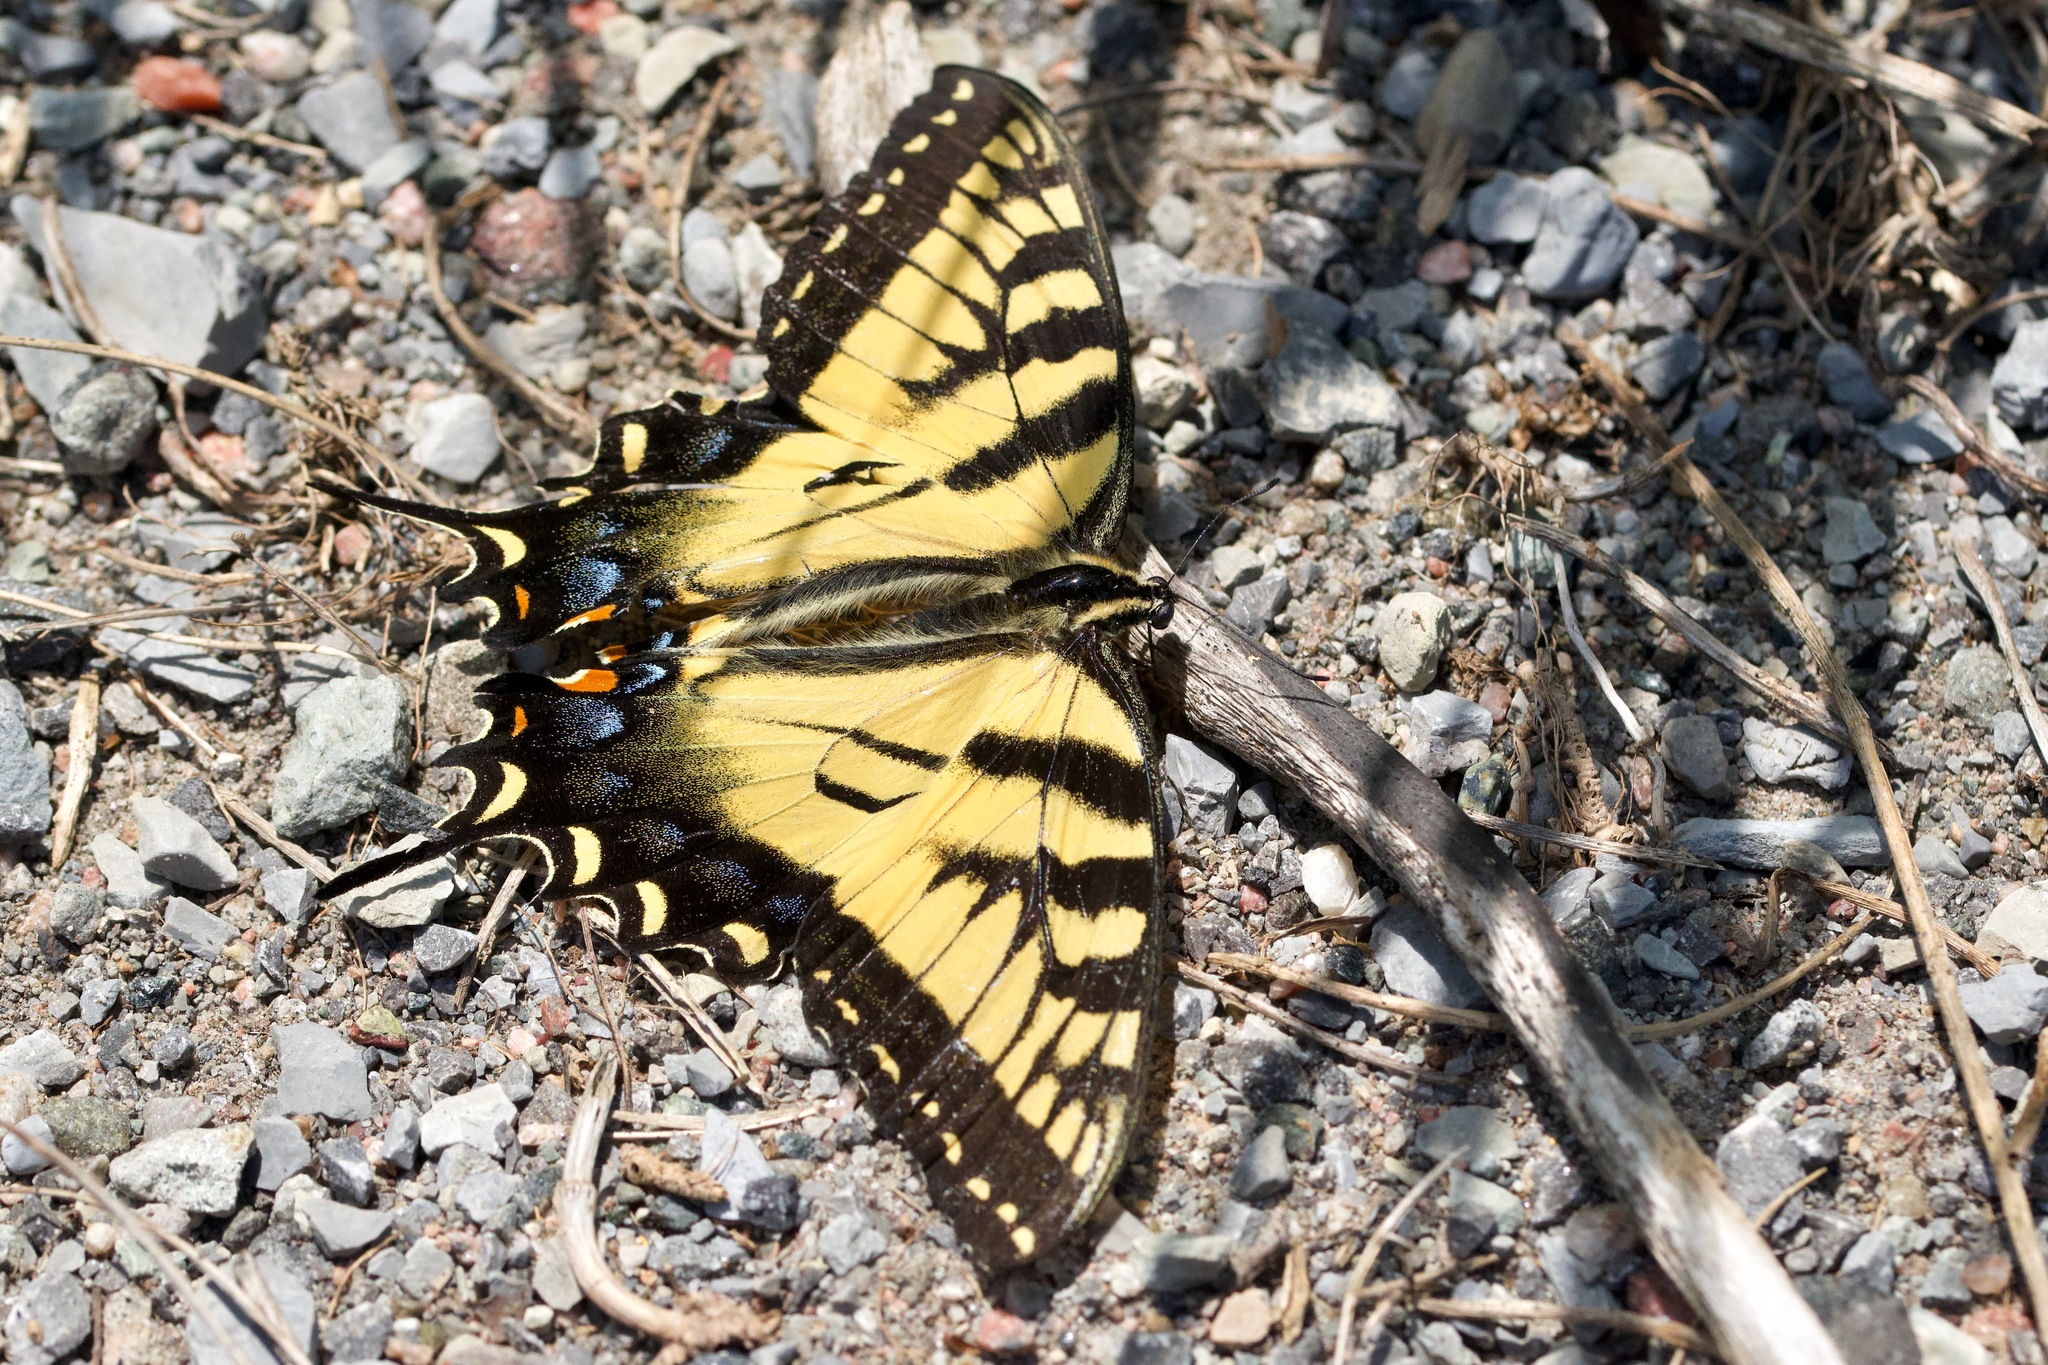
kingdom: Animalia
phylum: Arthropoda
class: Insecta
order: Lepidoptera
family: Papilionidae
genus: Papilio
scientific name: Papilio
